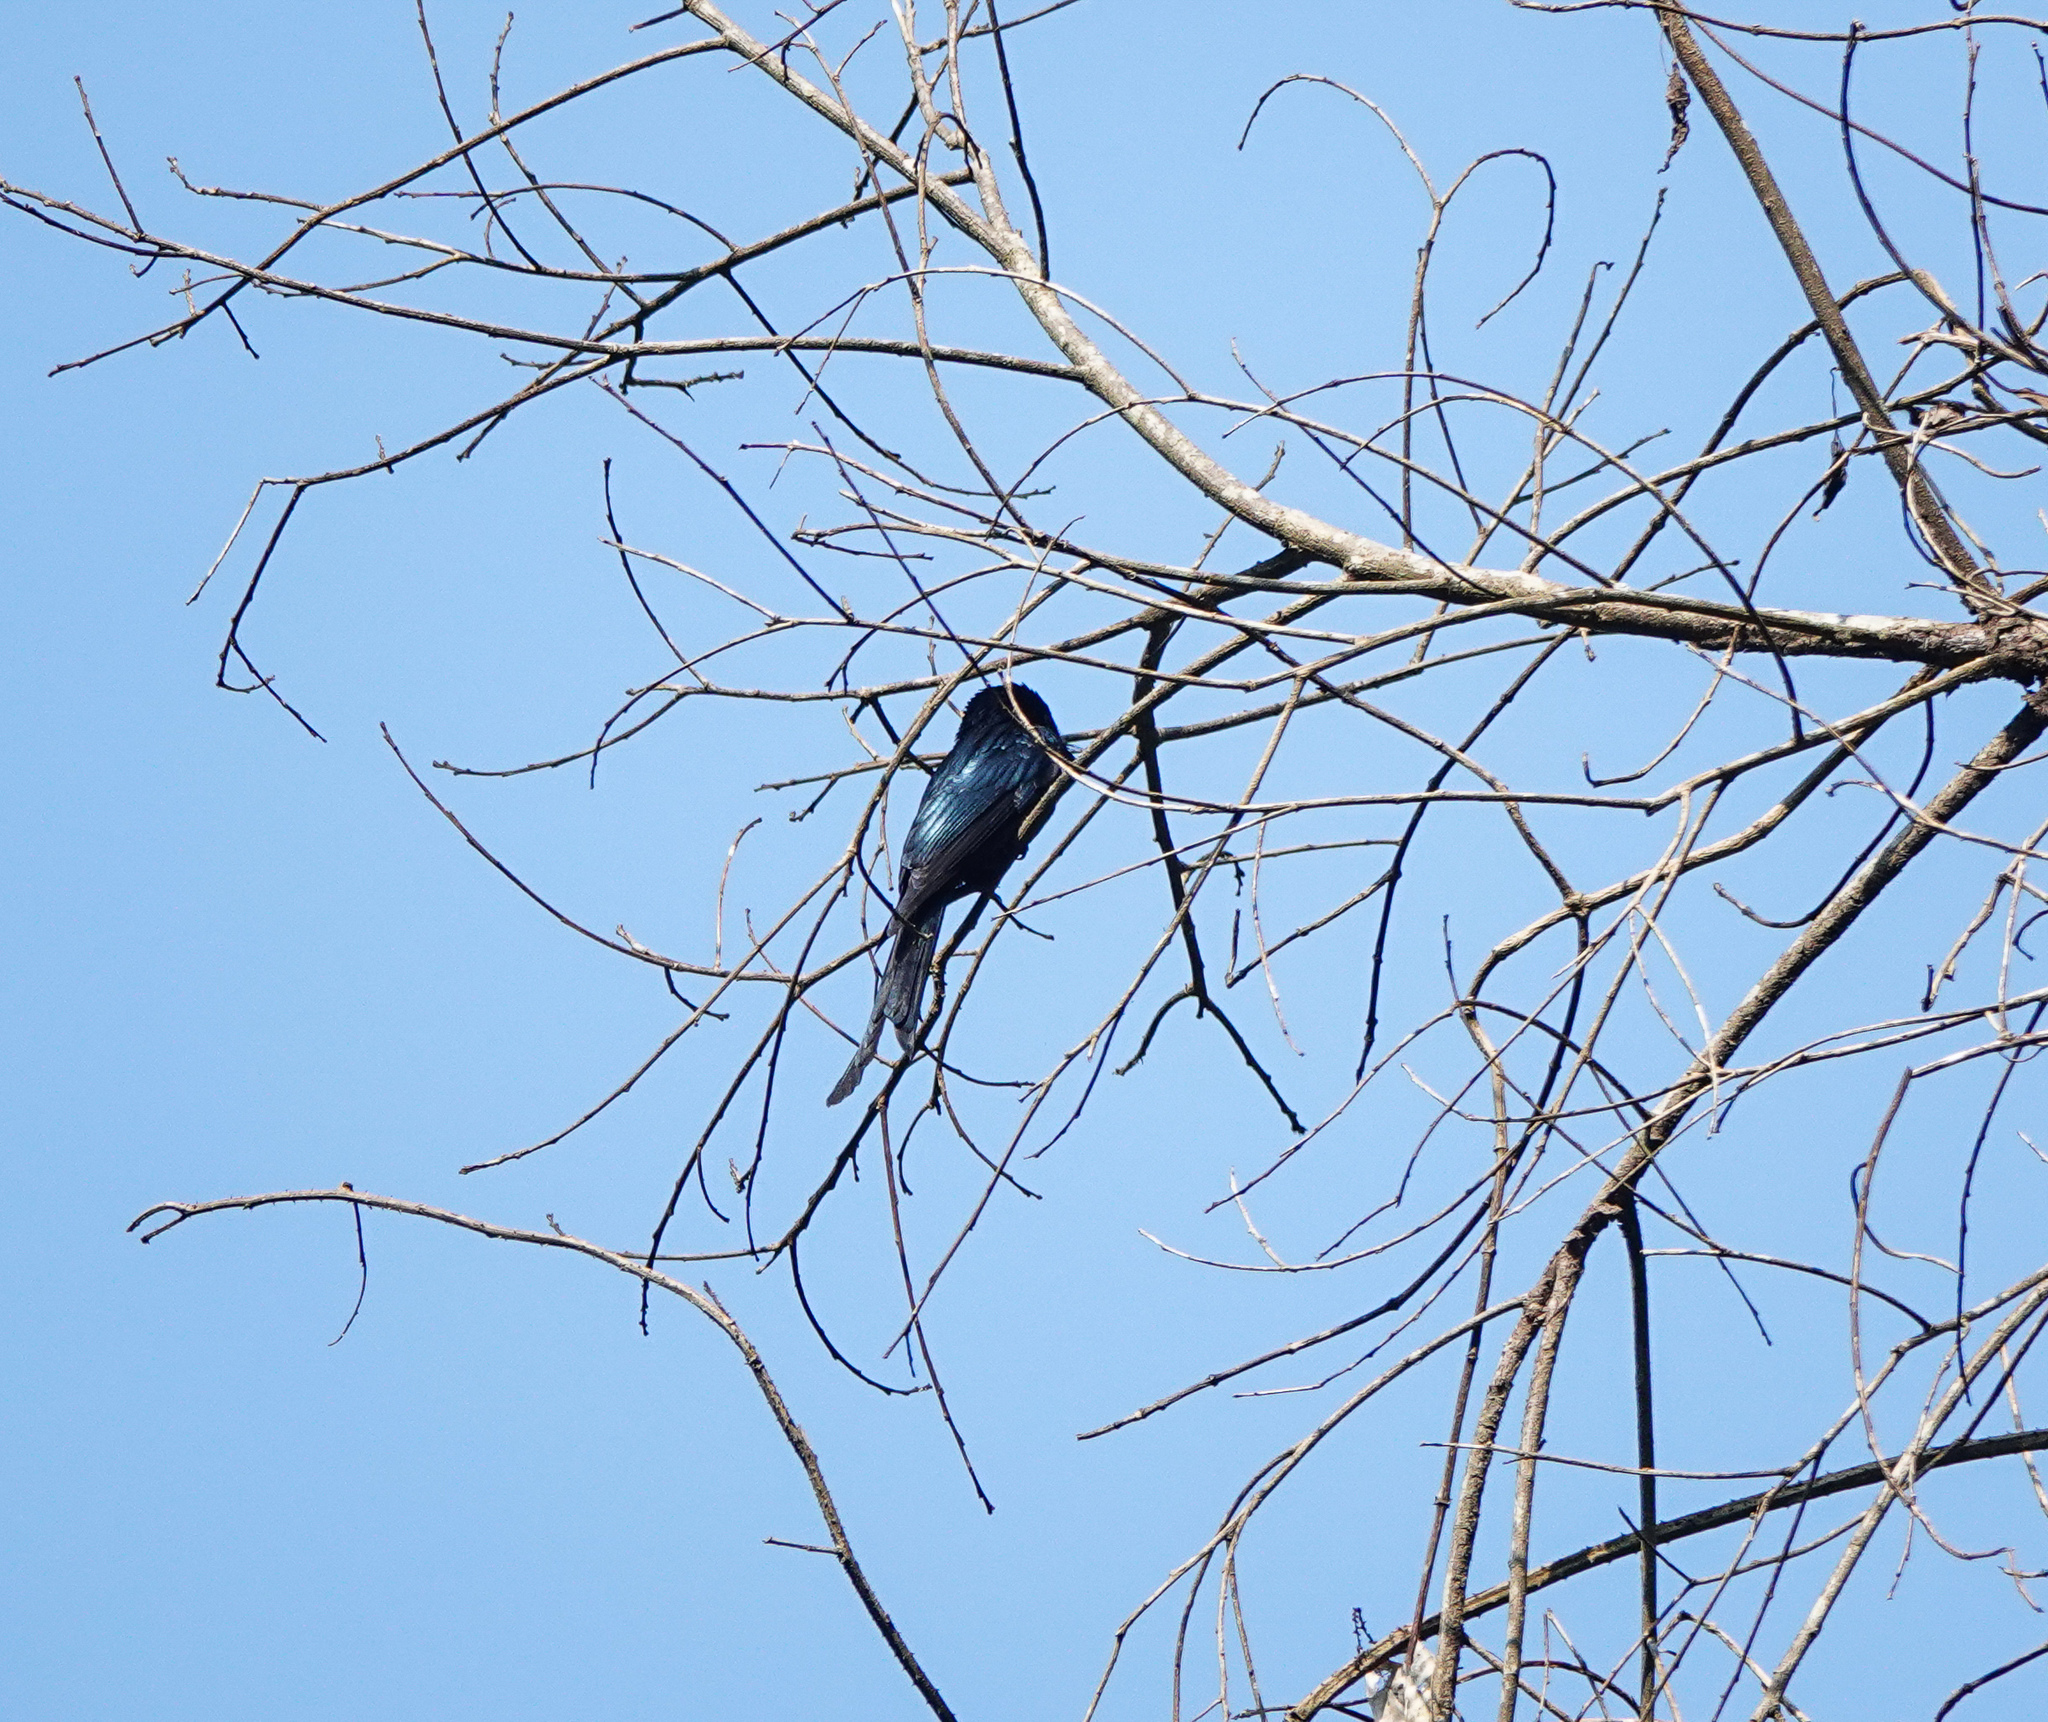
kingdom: Animalia
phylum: Chordata
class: Aves
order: Passeriformes
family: Dicruridae
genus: Dicrurus
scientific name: Dicrurus aeneus
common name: Bronzed drongo
